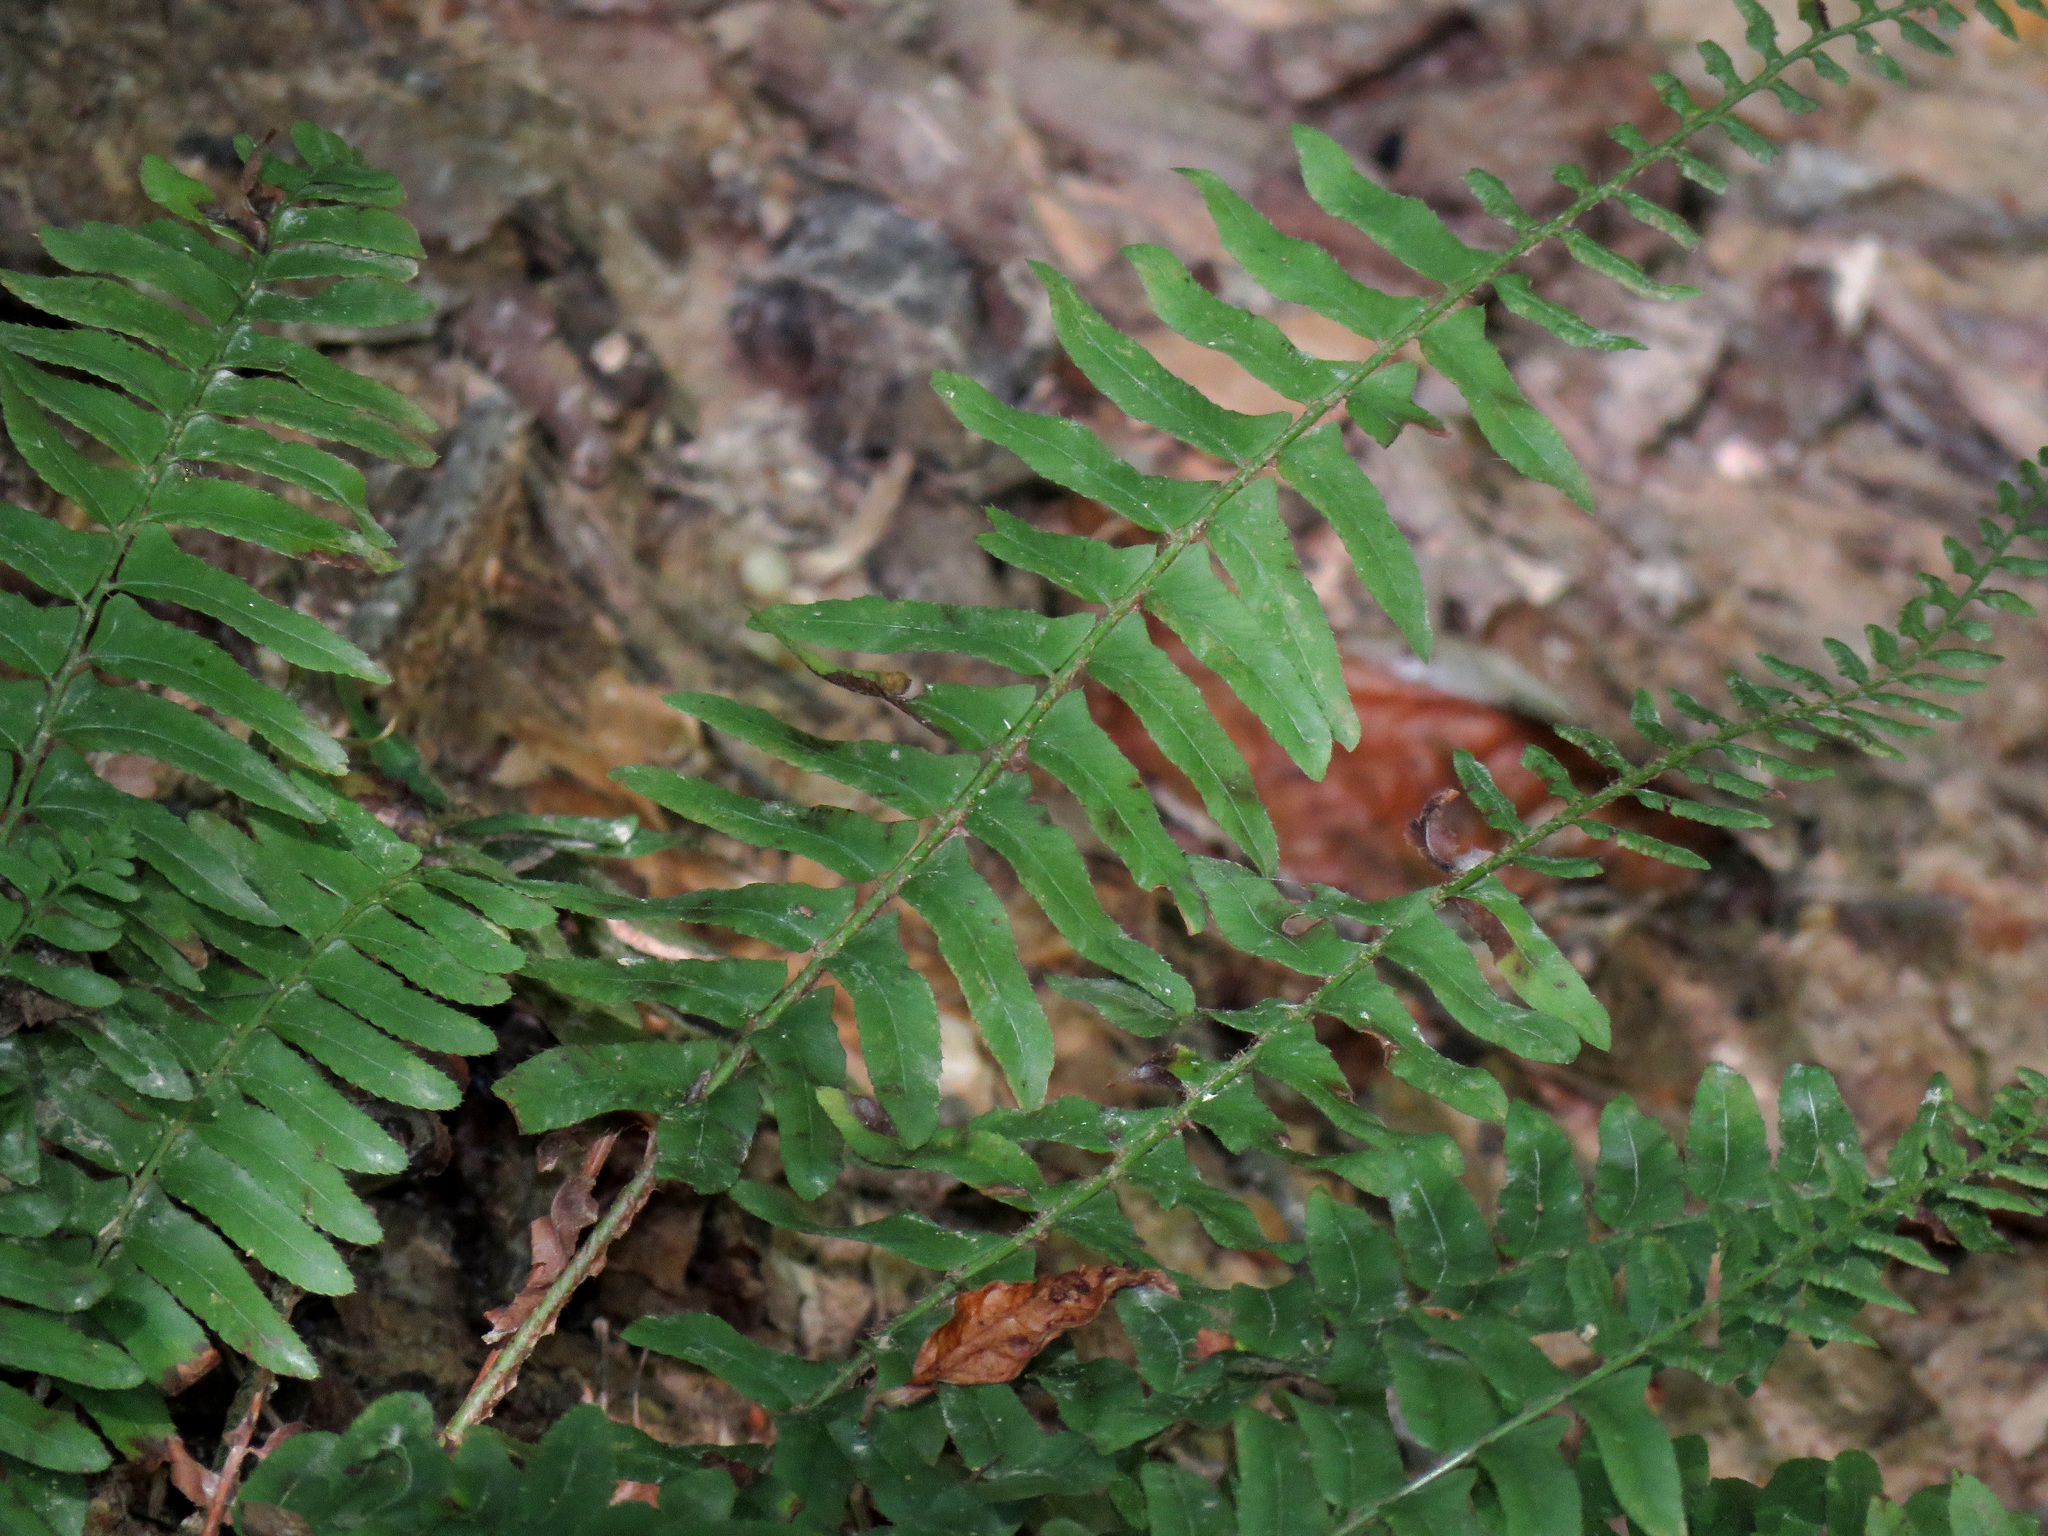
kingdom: Plantae
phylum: Tracheophyta
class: Polypodiopsida
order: Polypodiales
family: Dryopteridaceae
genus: Polystichum
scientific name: Polystichum acrostichoides
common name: Christmas fern
